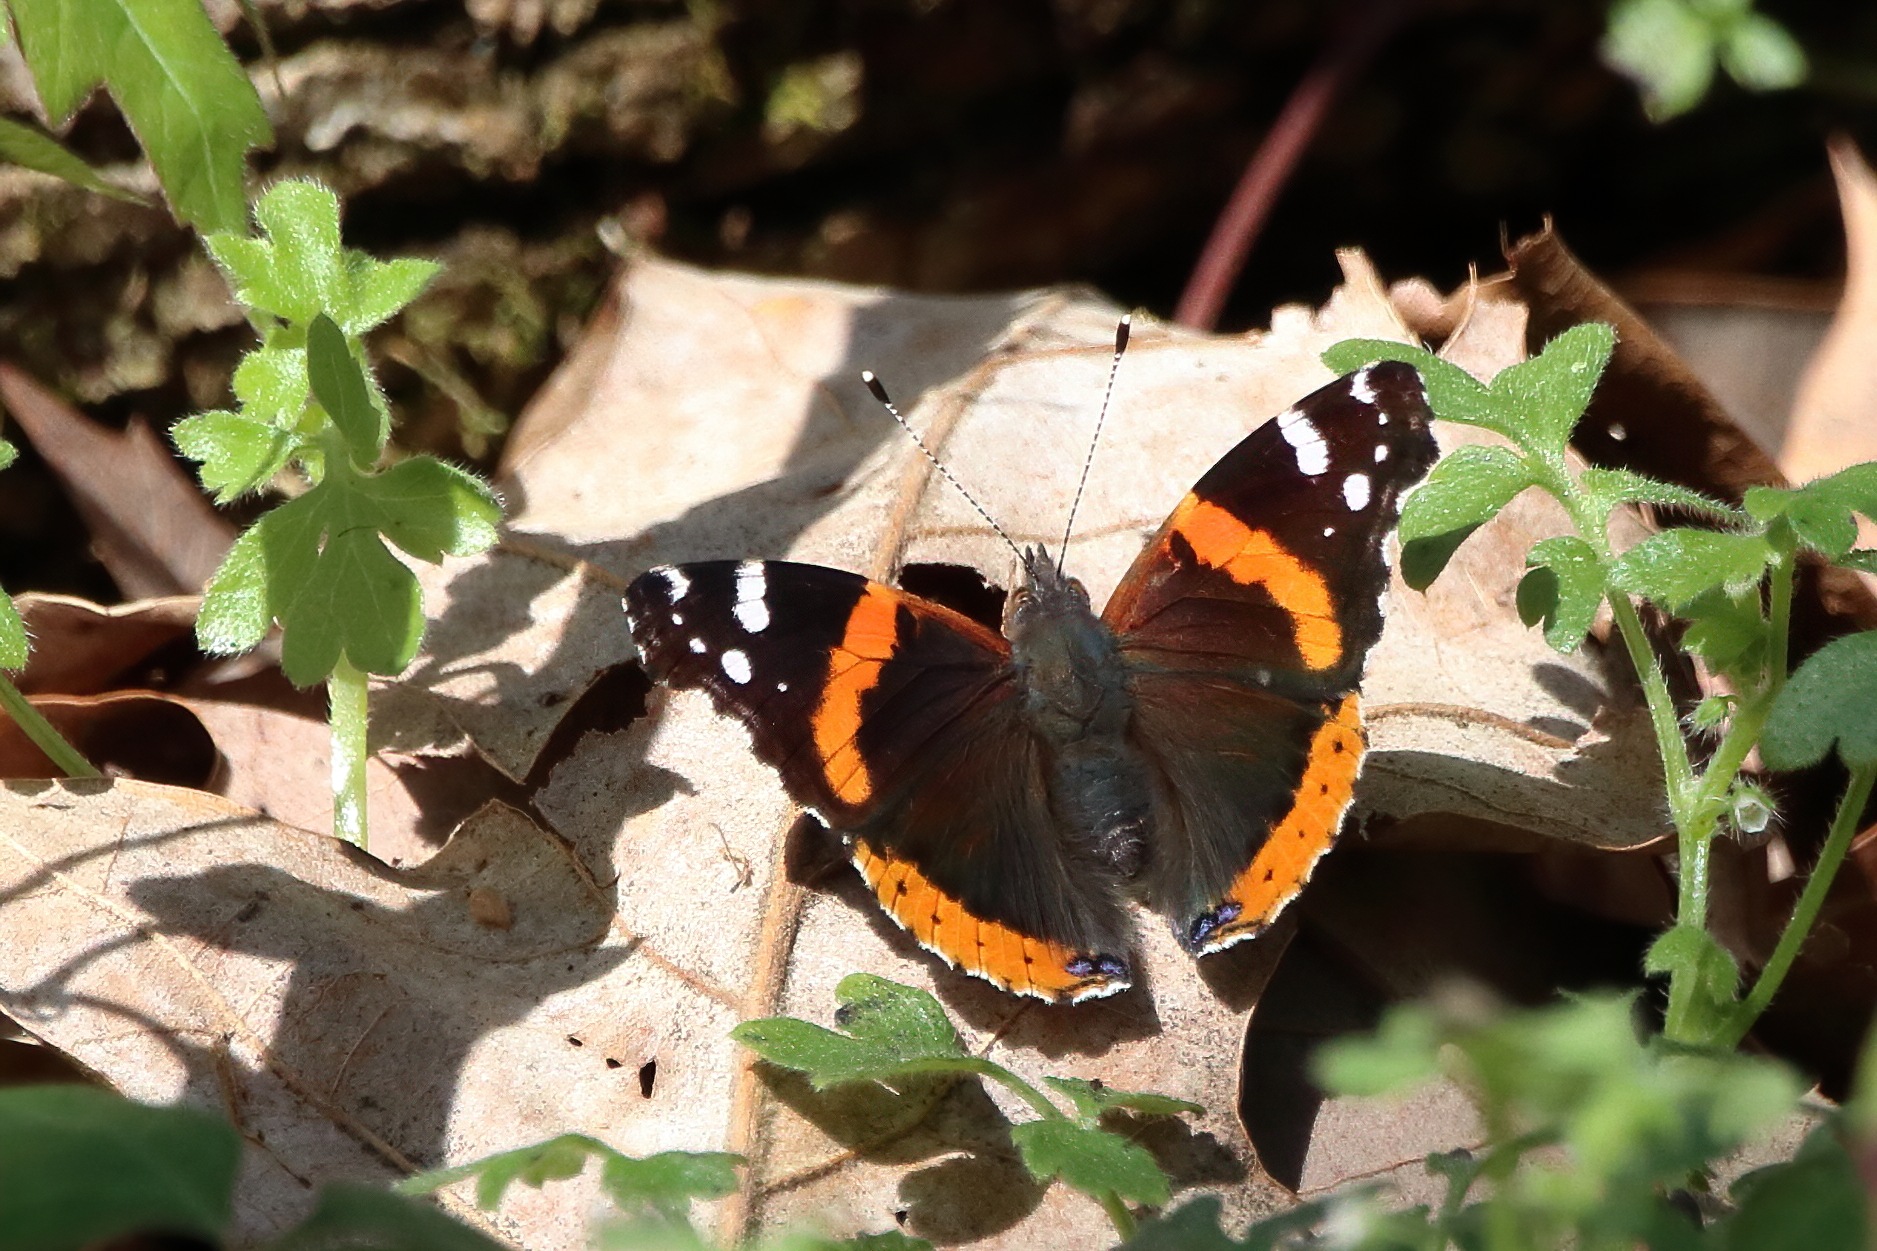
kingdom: Animalia
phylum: Arthropoda
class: Insecta
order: Lepidoptera
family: Nymphalidae
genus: Vanessa
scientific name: Vanessa atalanta
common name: Red admiral
